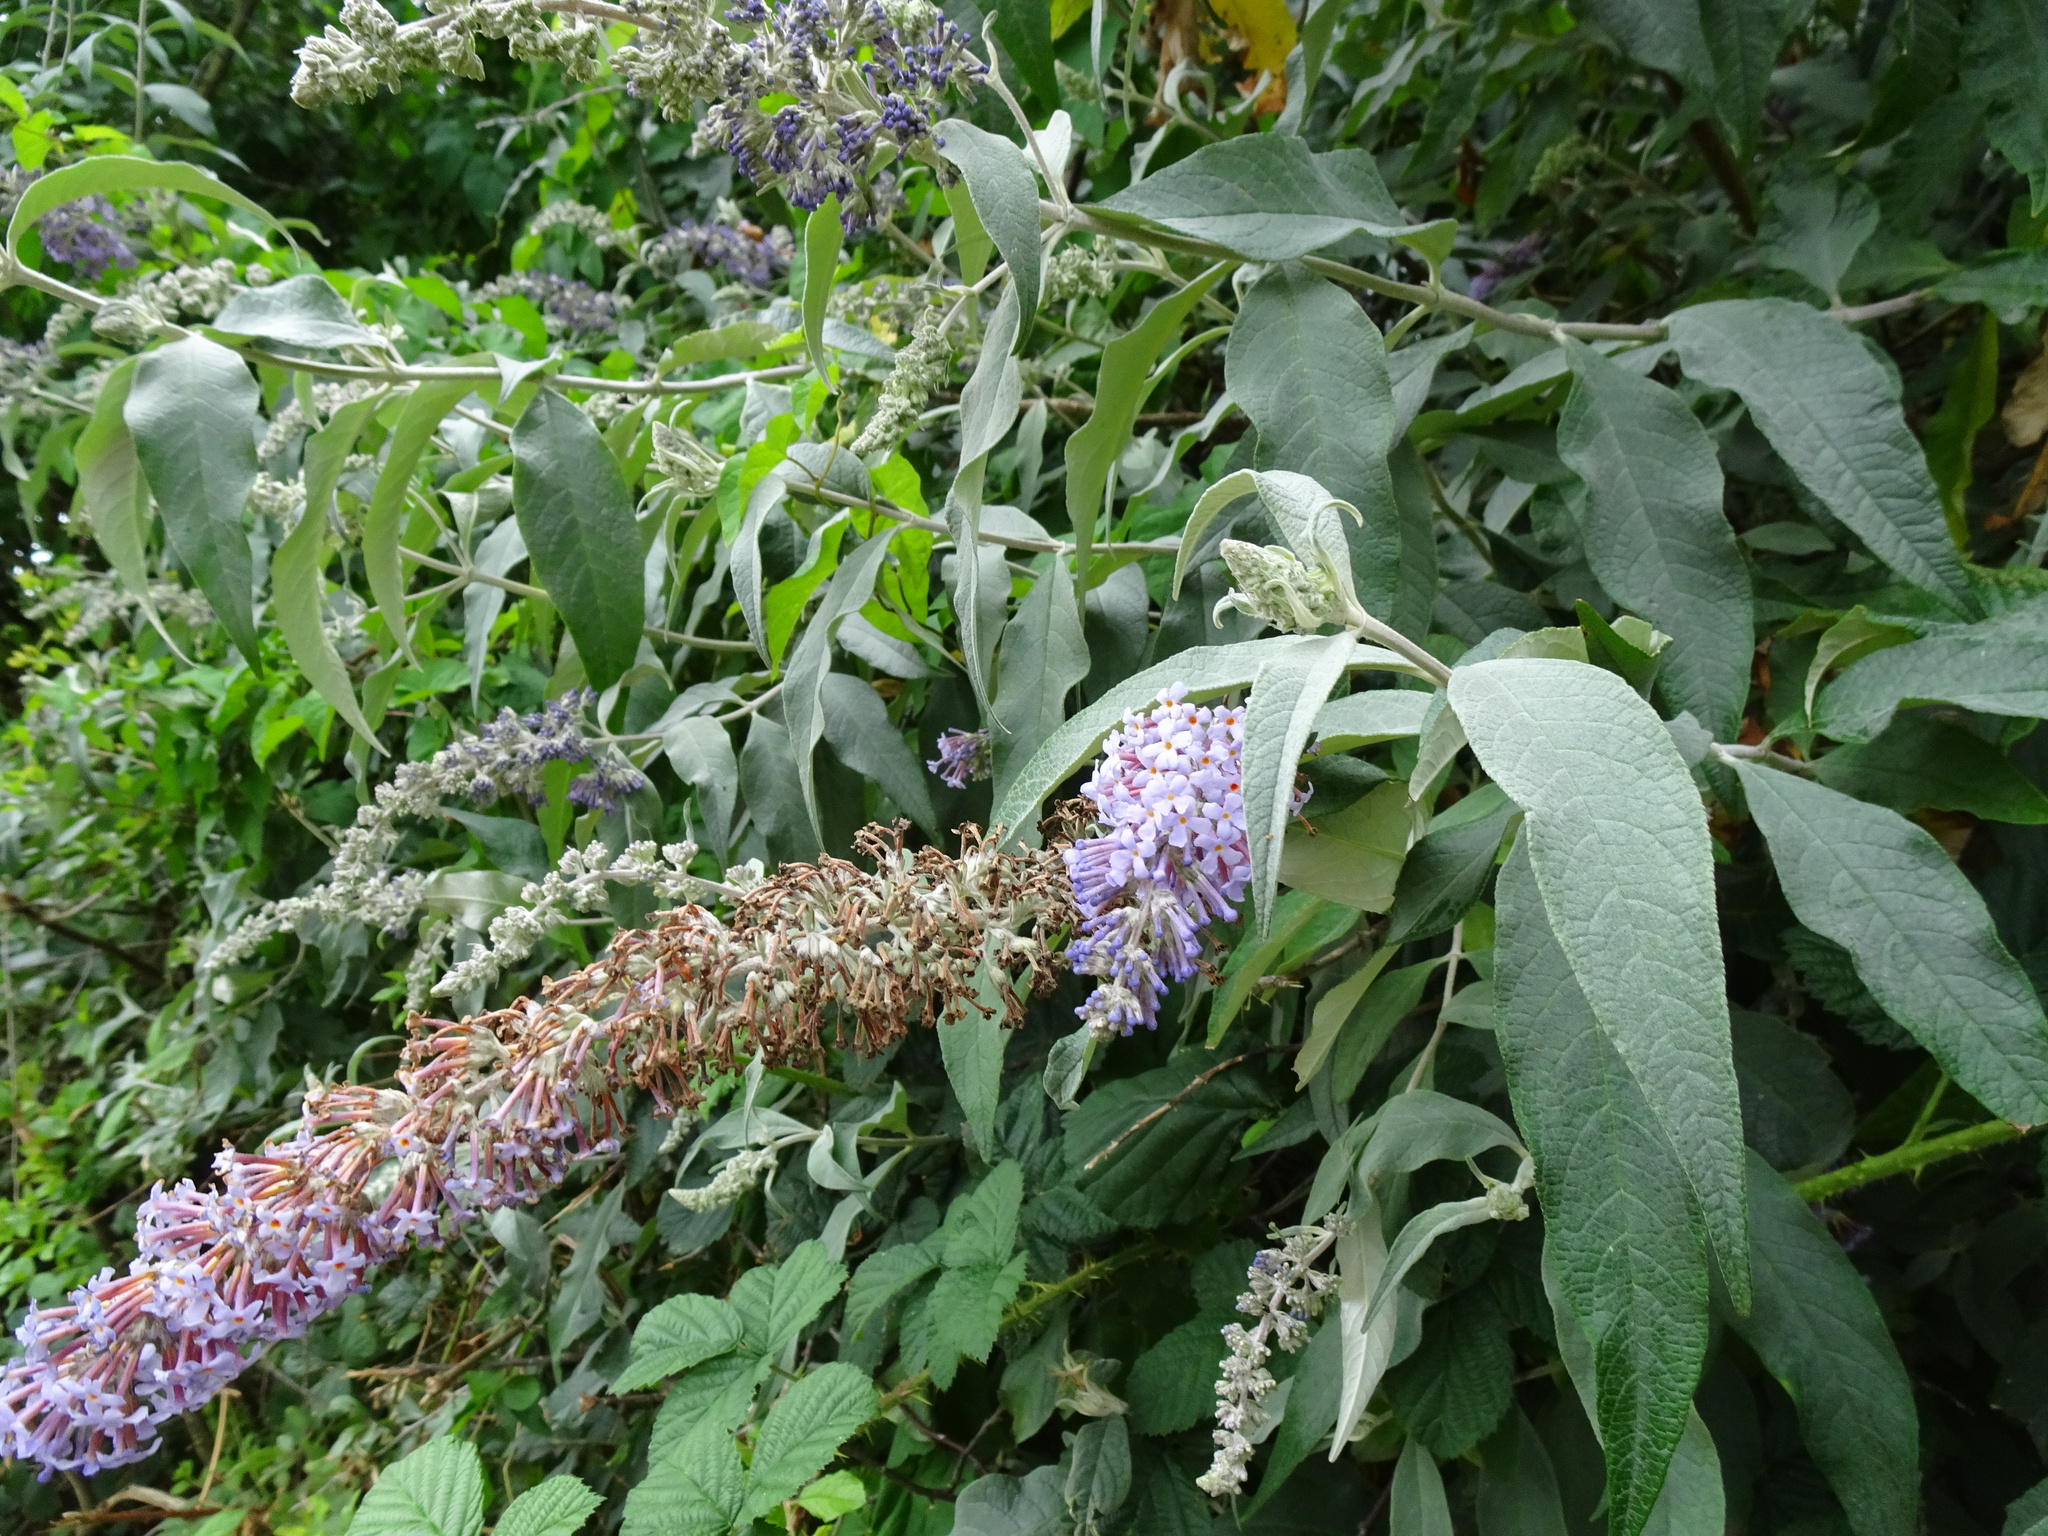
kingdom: Plantae
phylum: Tracheophyta
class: Magnoliopsida
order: Lamiales
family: Scrophulariaceae
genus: Buddleja
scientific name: Buddleja davidii
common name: Butterfly-bush
